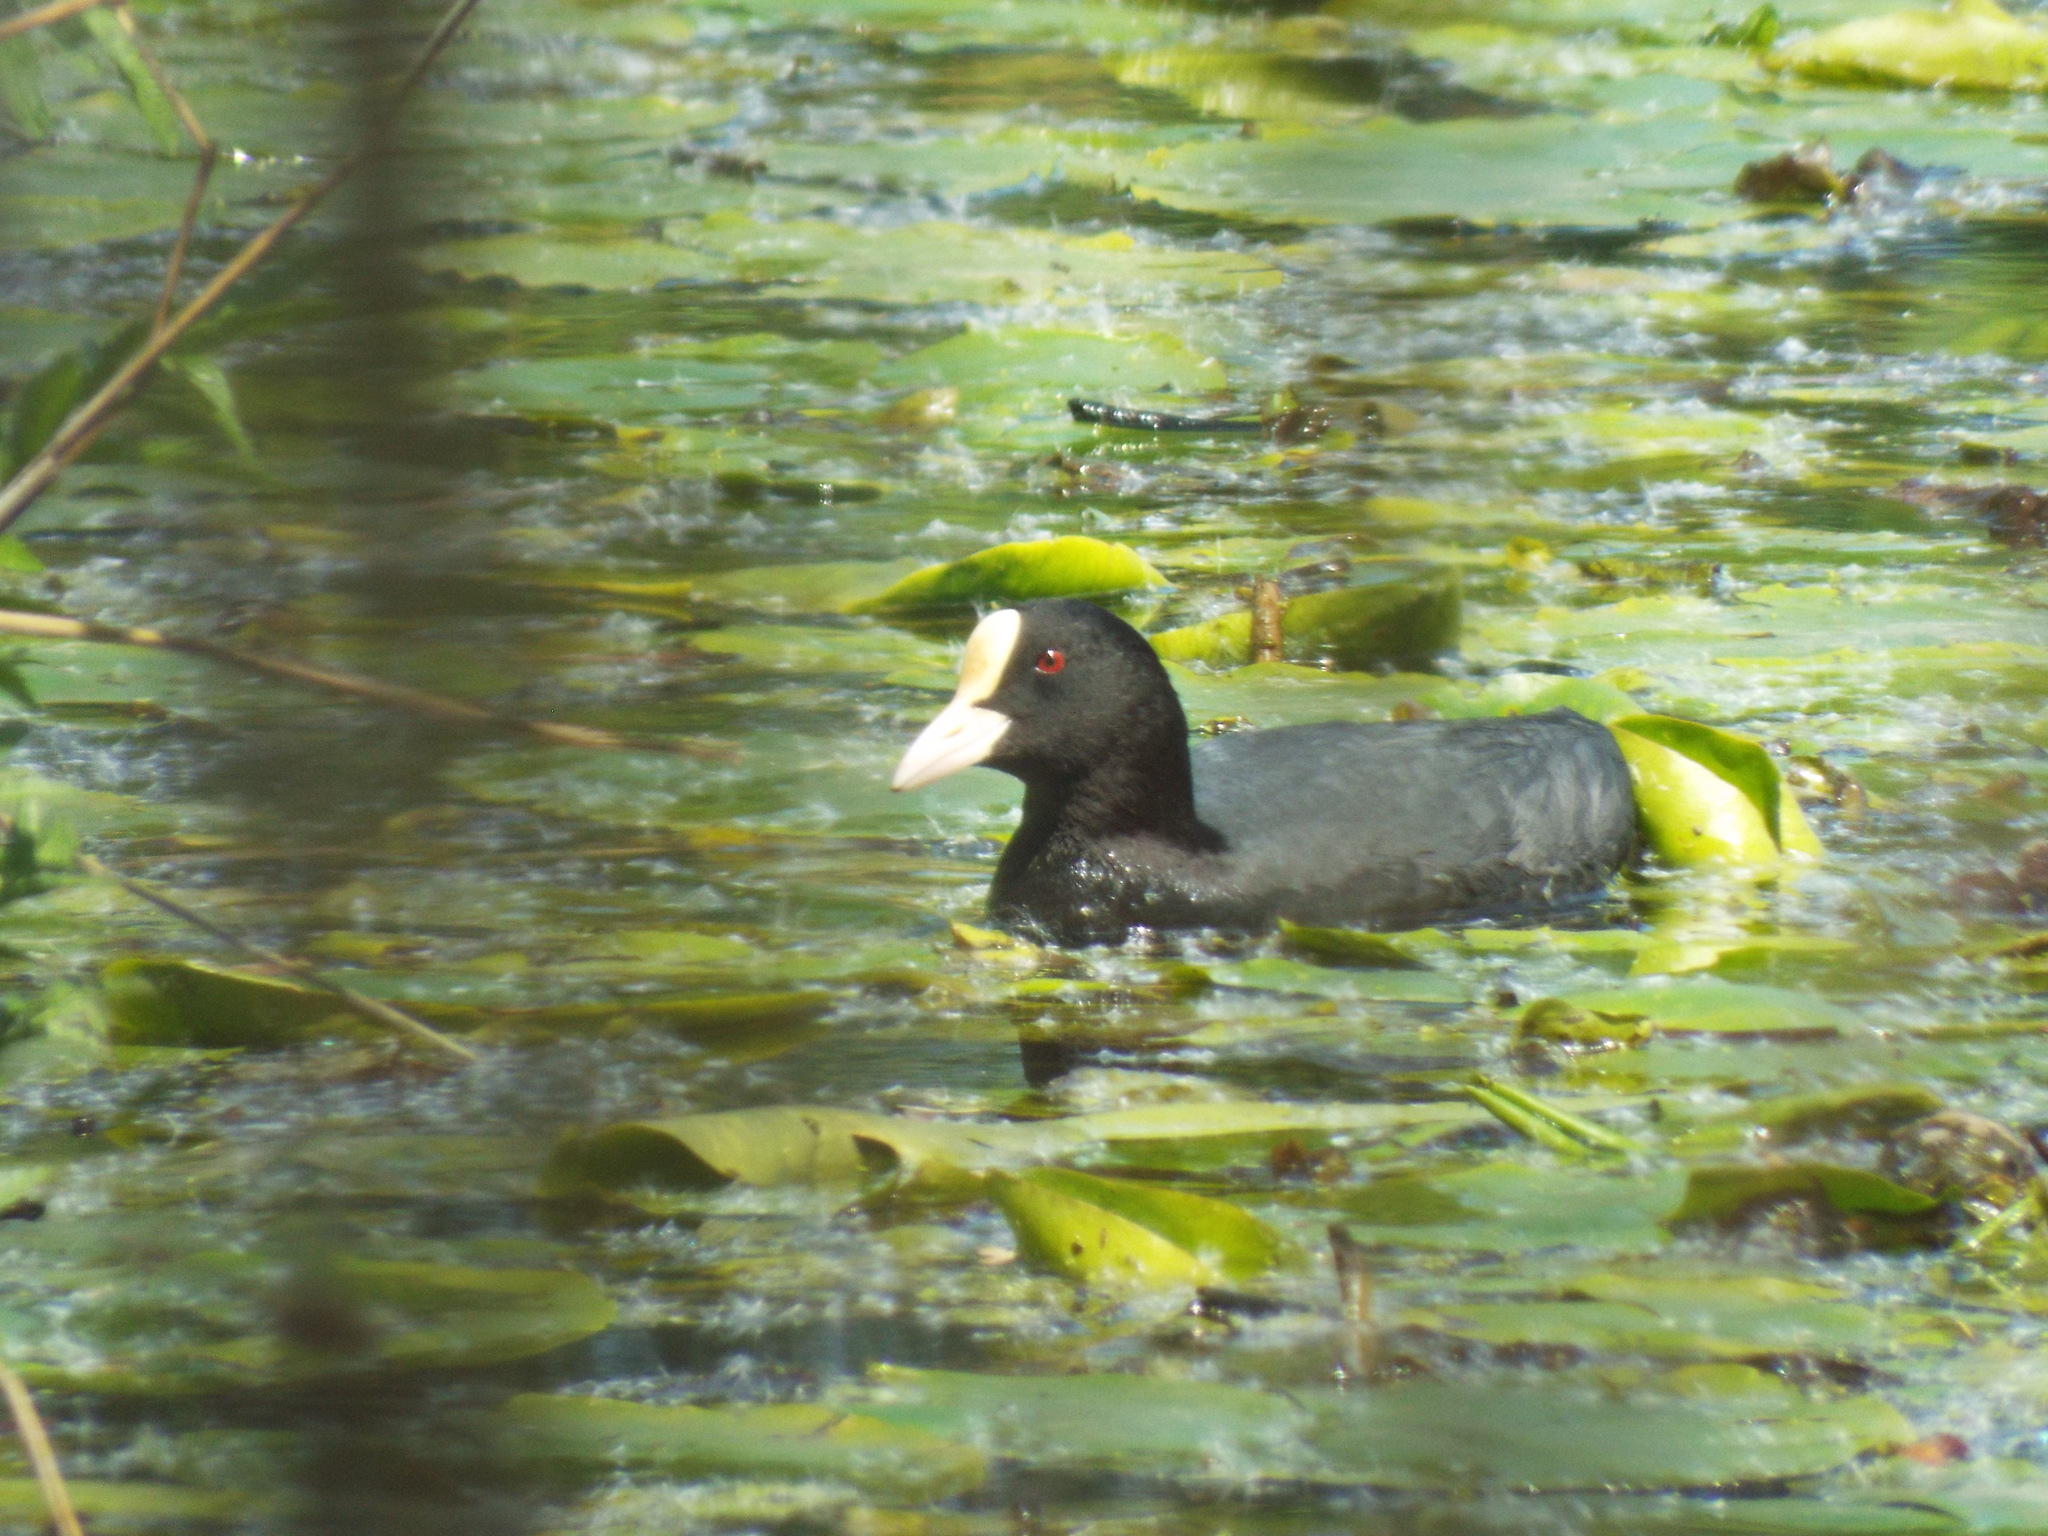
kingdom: Animalia
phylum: Chordata
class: Aves
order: Gruiformes
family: Rallidae
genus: Fulica
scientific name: Fulica atra
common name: Eurasian coot
